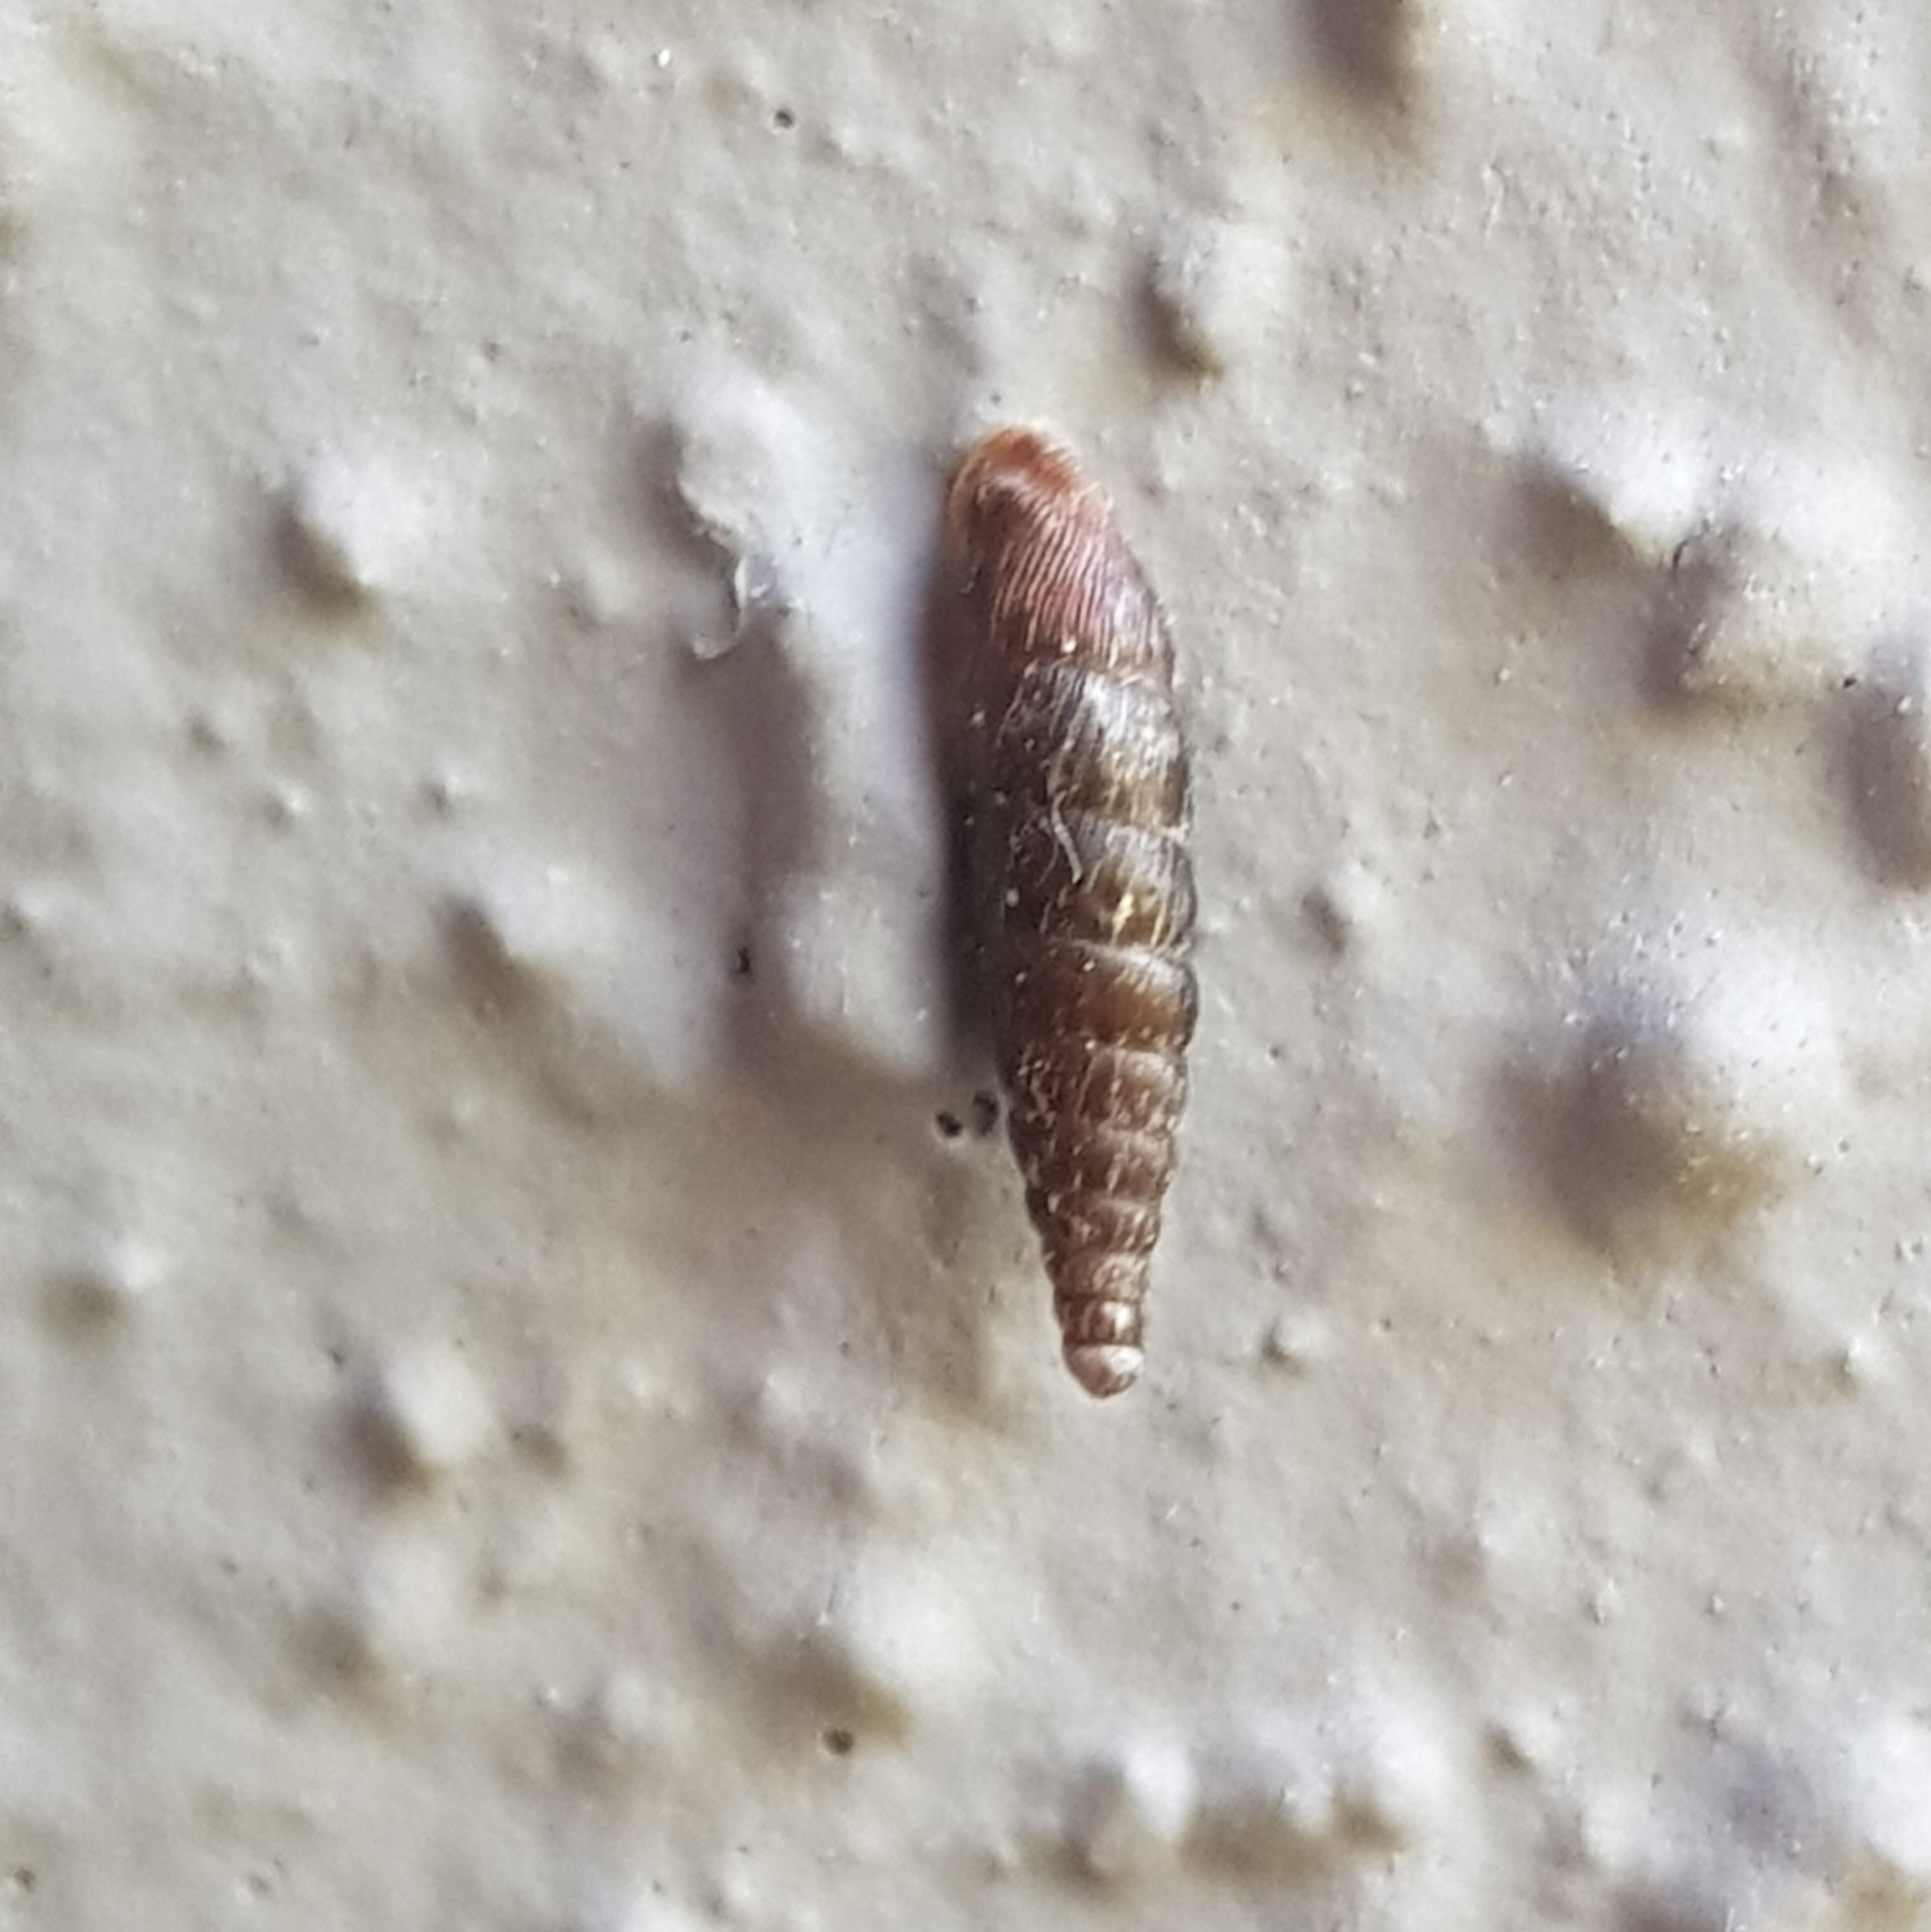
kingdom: Animalia
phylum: Mollusca
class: Gastropoda
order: Stylommatophora
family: Clausiliidae
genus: Clausilia
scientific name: Clausilia bidentata
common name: Two-toothed door snail
